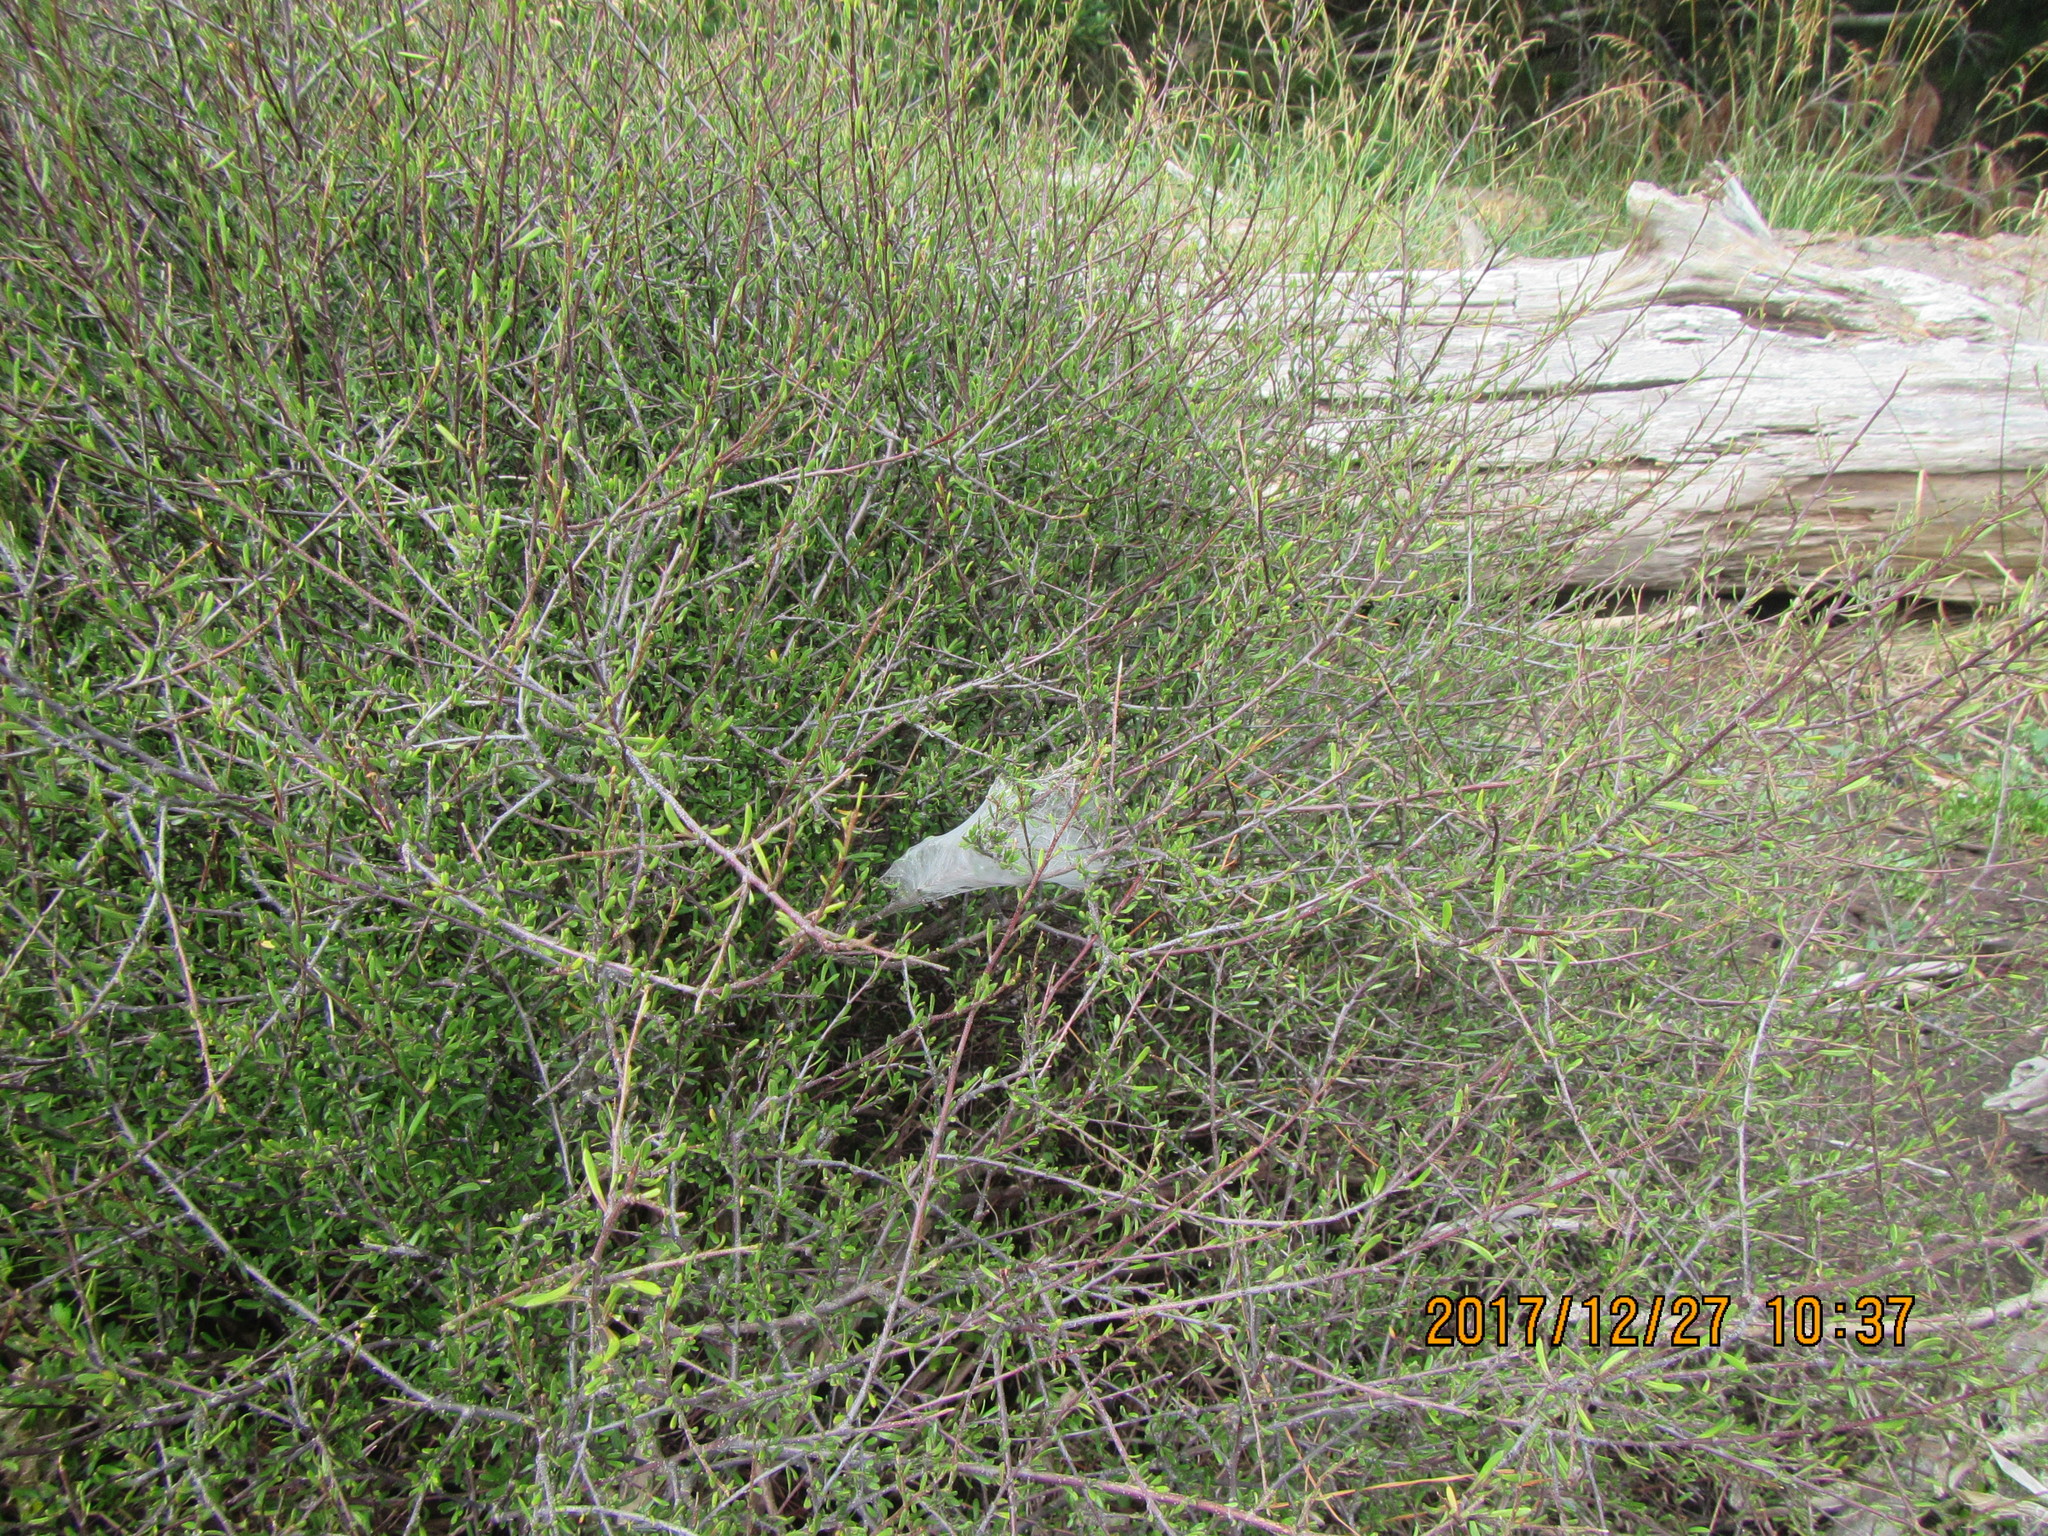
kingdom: Plantae
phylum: Tracheophyta
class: Magnoliopsida
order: Malvales
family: Malvaceae
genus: Plagianthus
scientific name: Plagianthus divaricatus
